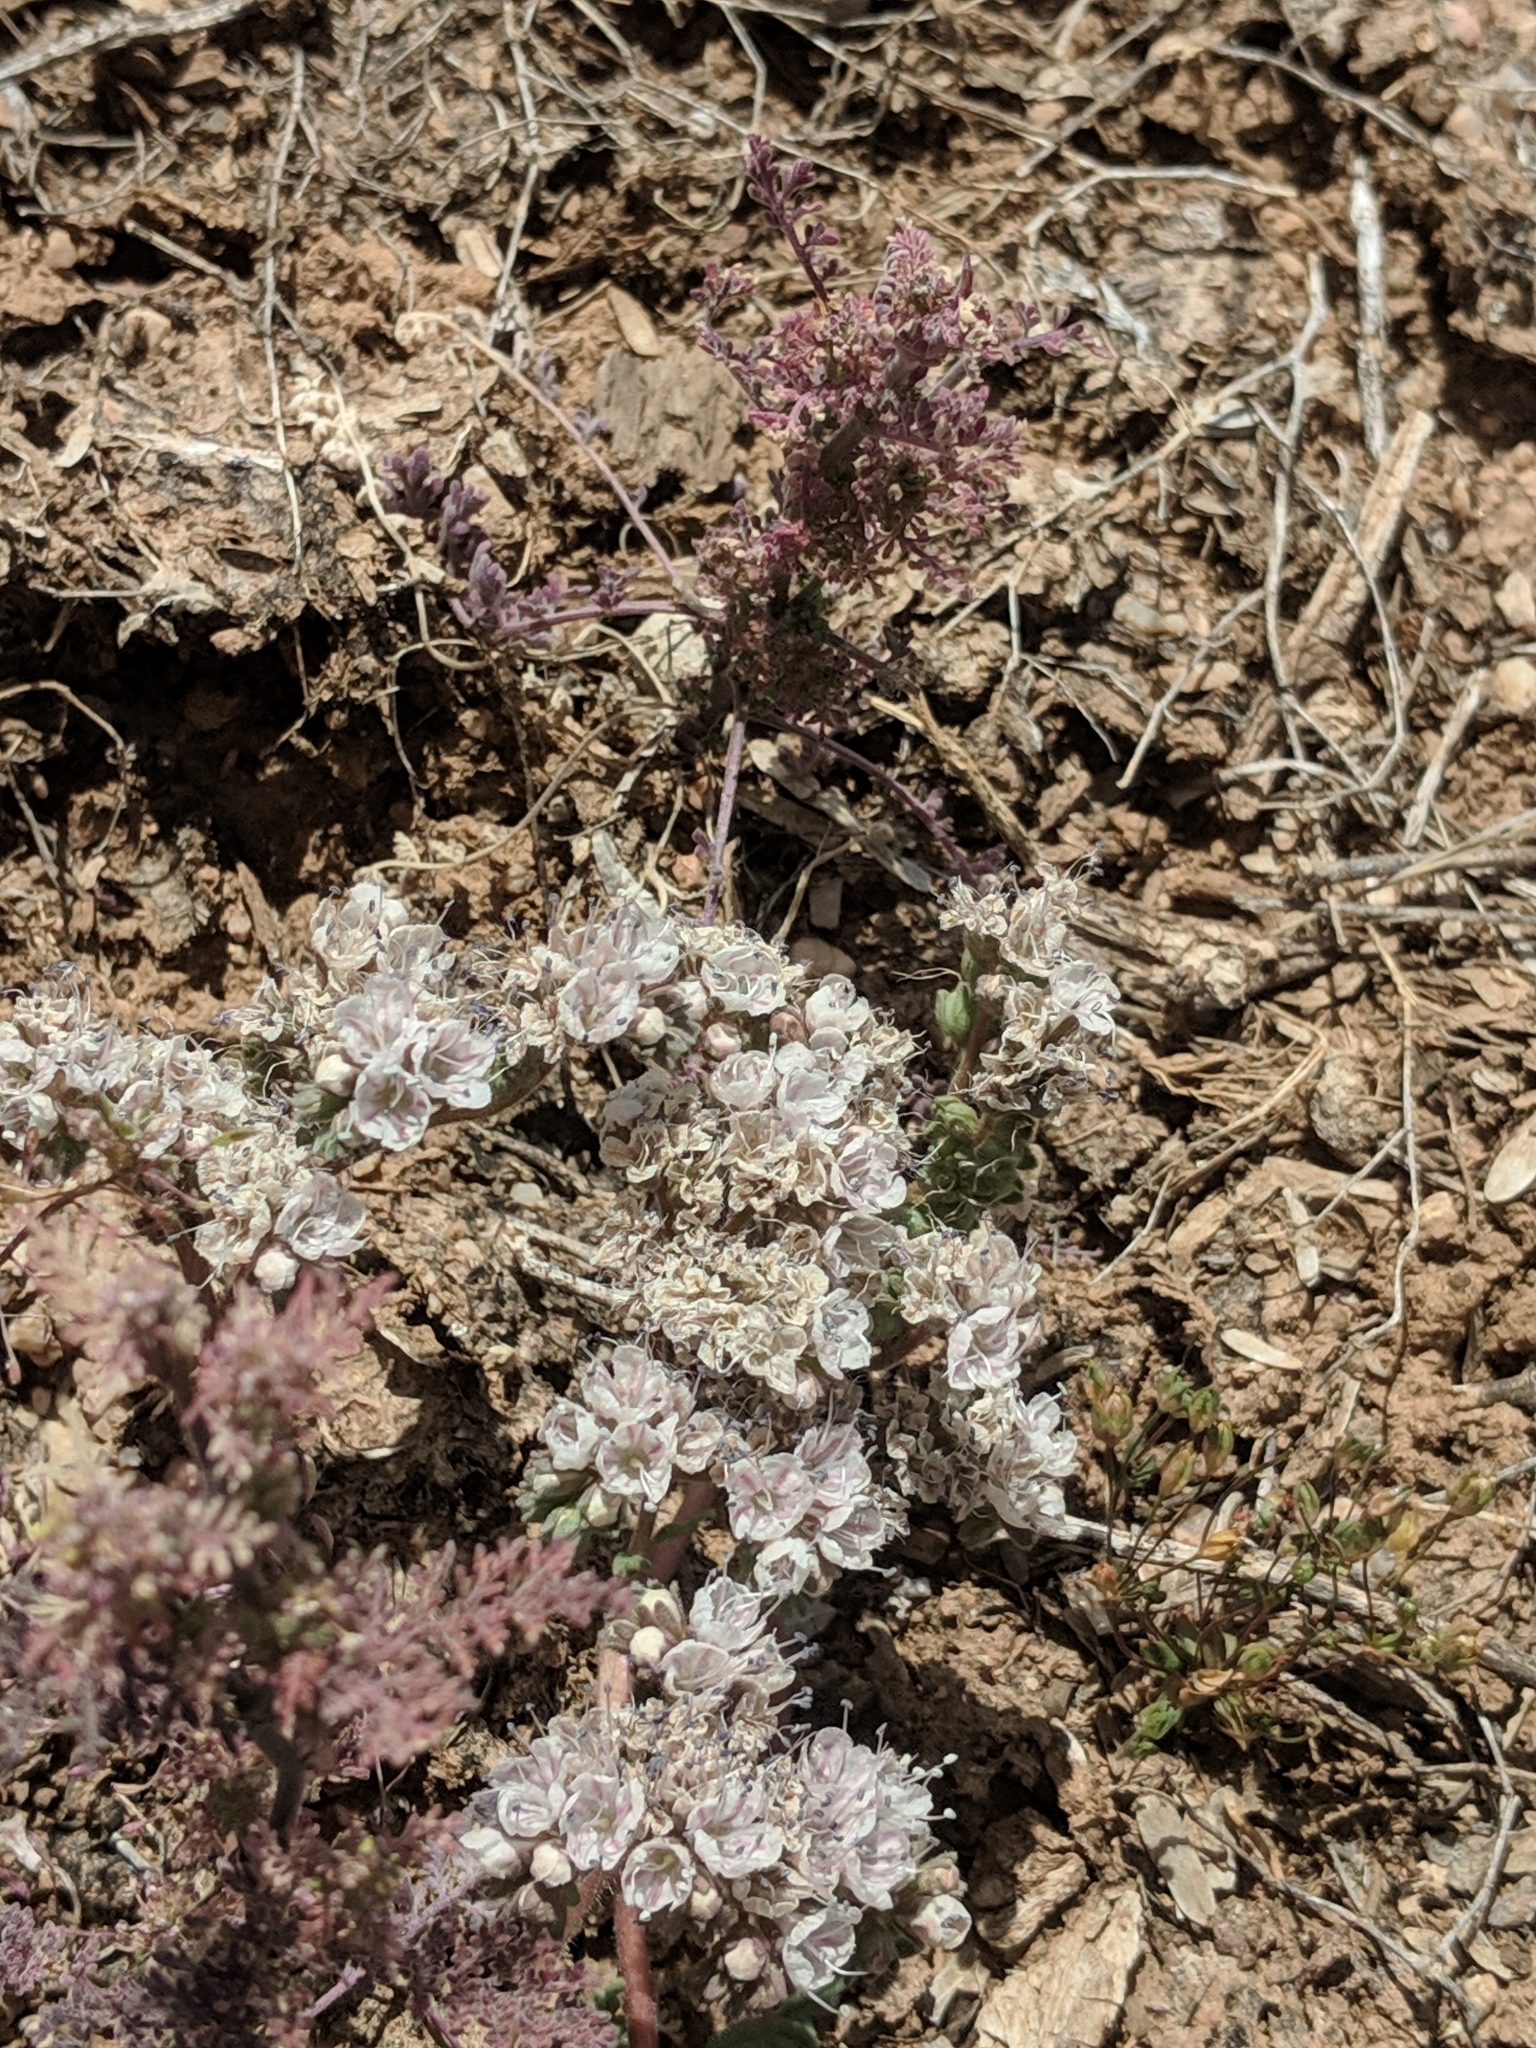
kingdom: Plantae
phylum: Tracheophyta
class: Magnoliopsida
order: Boraginales
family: Hydrophyllaceae
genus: Phacelia
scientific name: Phacelia arizonica
